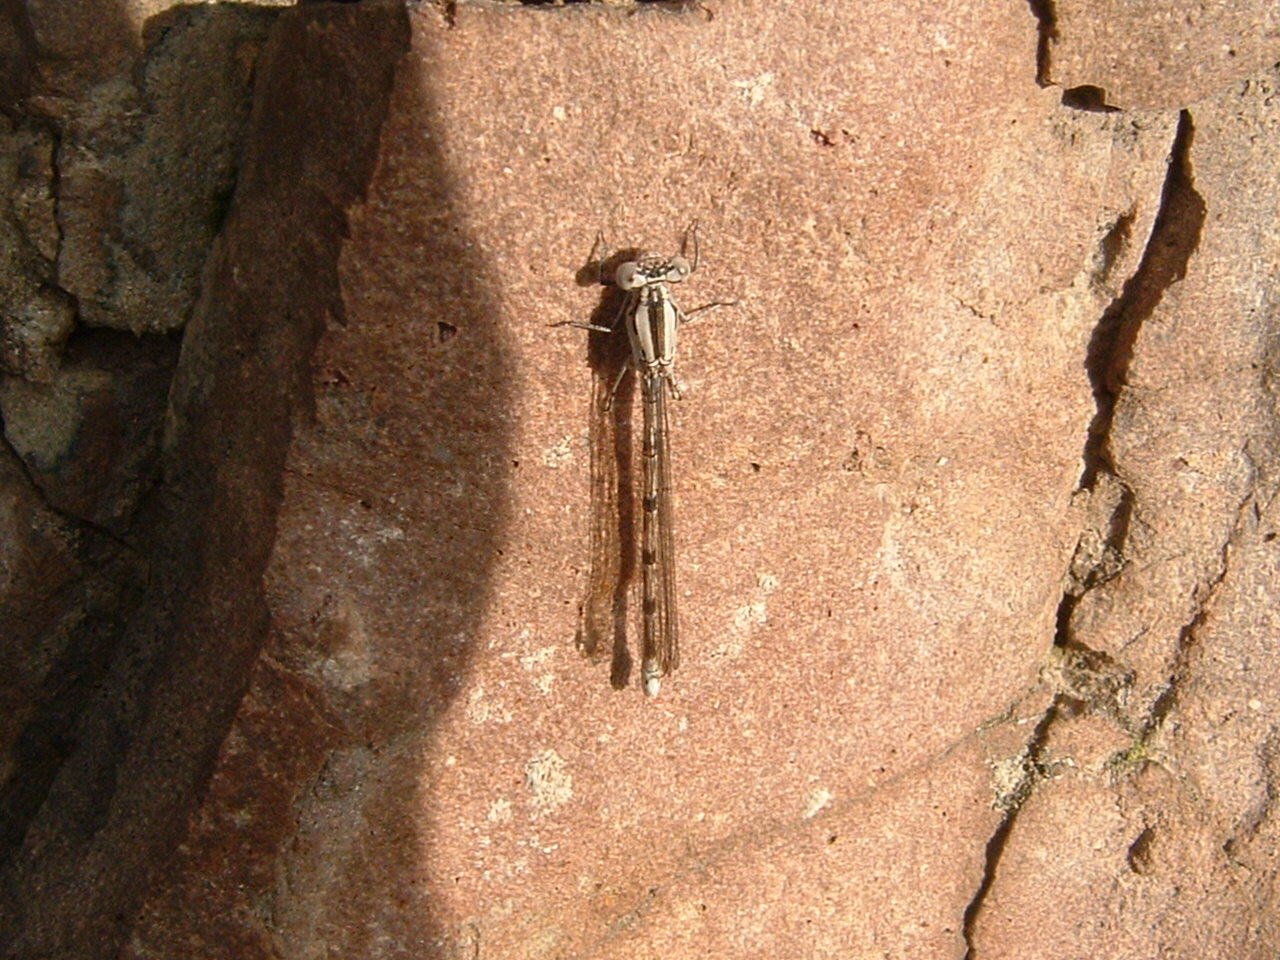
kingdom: Animalia
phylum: Arthropoda
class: Insecta
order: Odonata
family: Coenagrionidae
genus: Argia
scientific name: Argia vivida
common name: Vivid dancer
